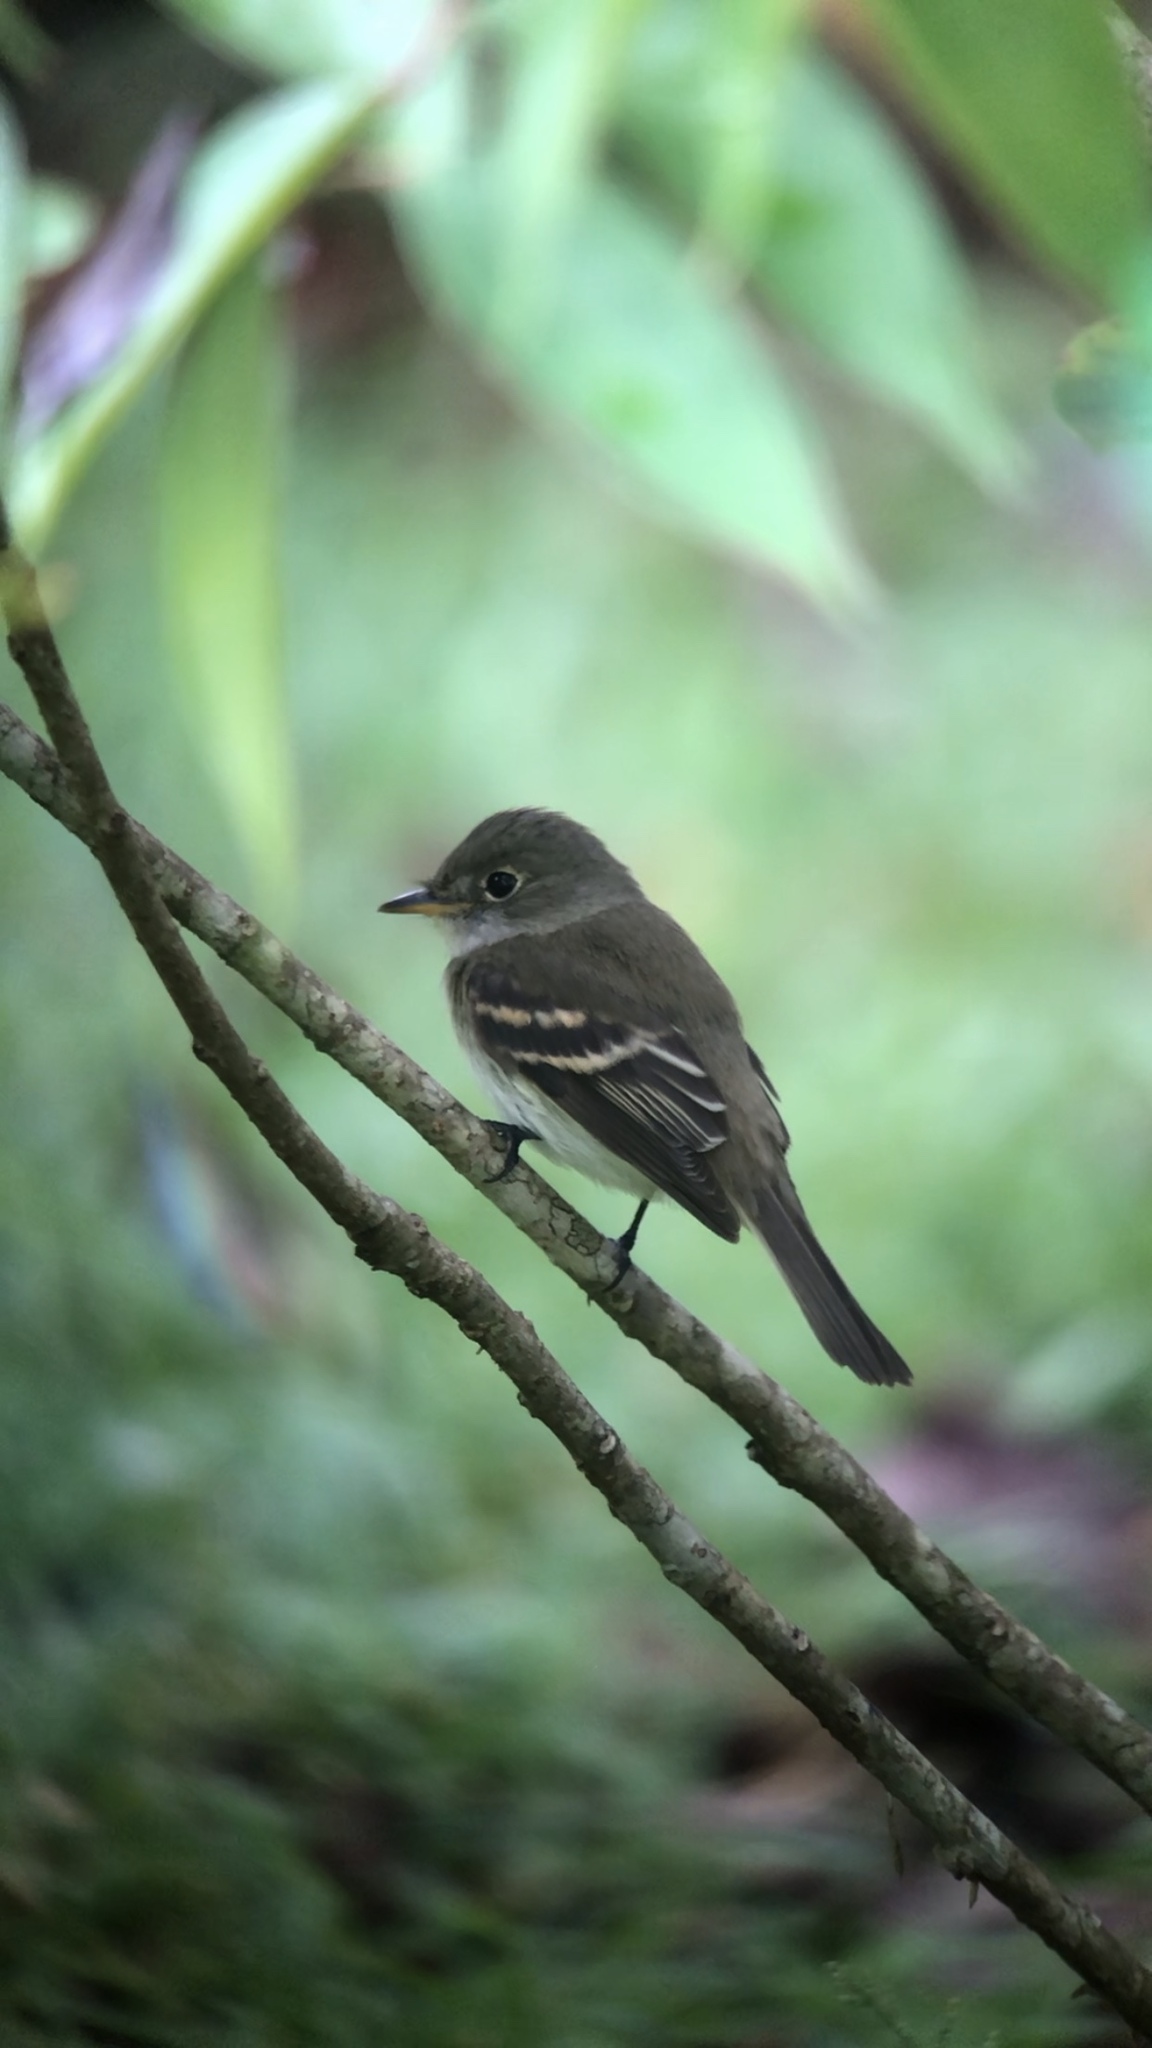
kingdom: Animalia
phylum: Chordata
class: Aves
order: Passeriformes
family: Tyrannidae
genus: Empidonax
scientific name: Empidonax virescens
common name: Acadian flycatcher
